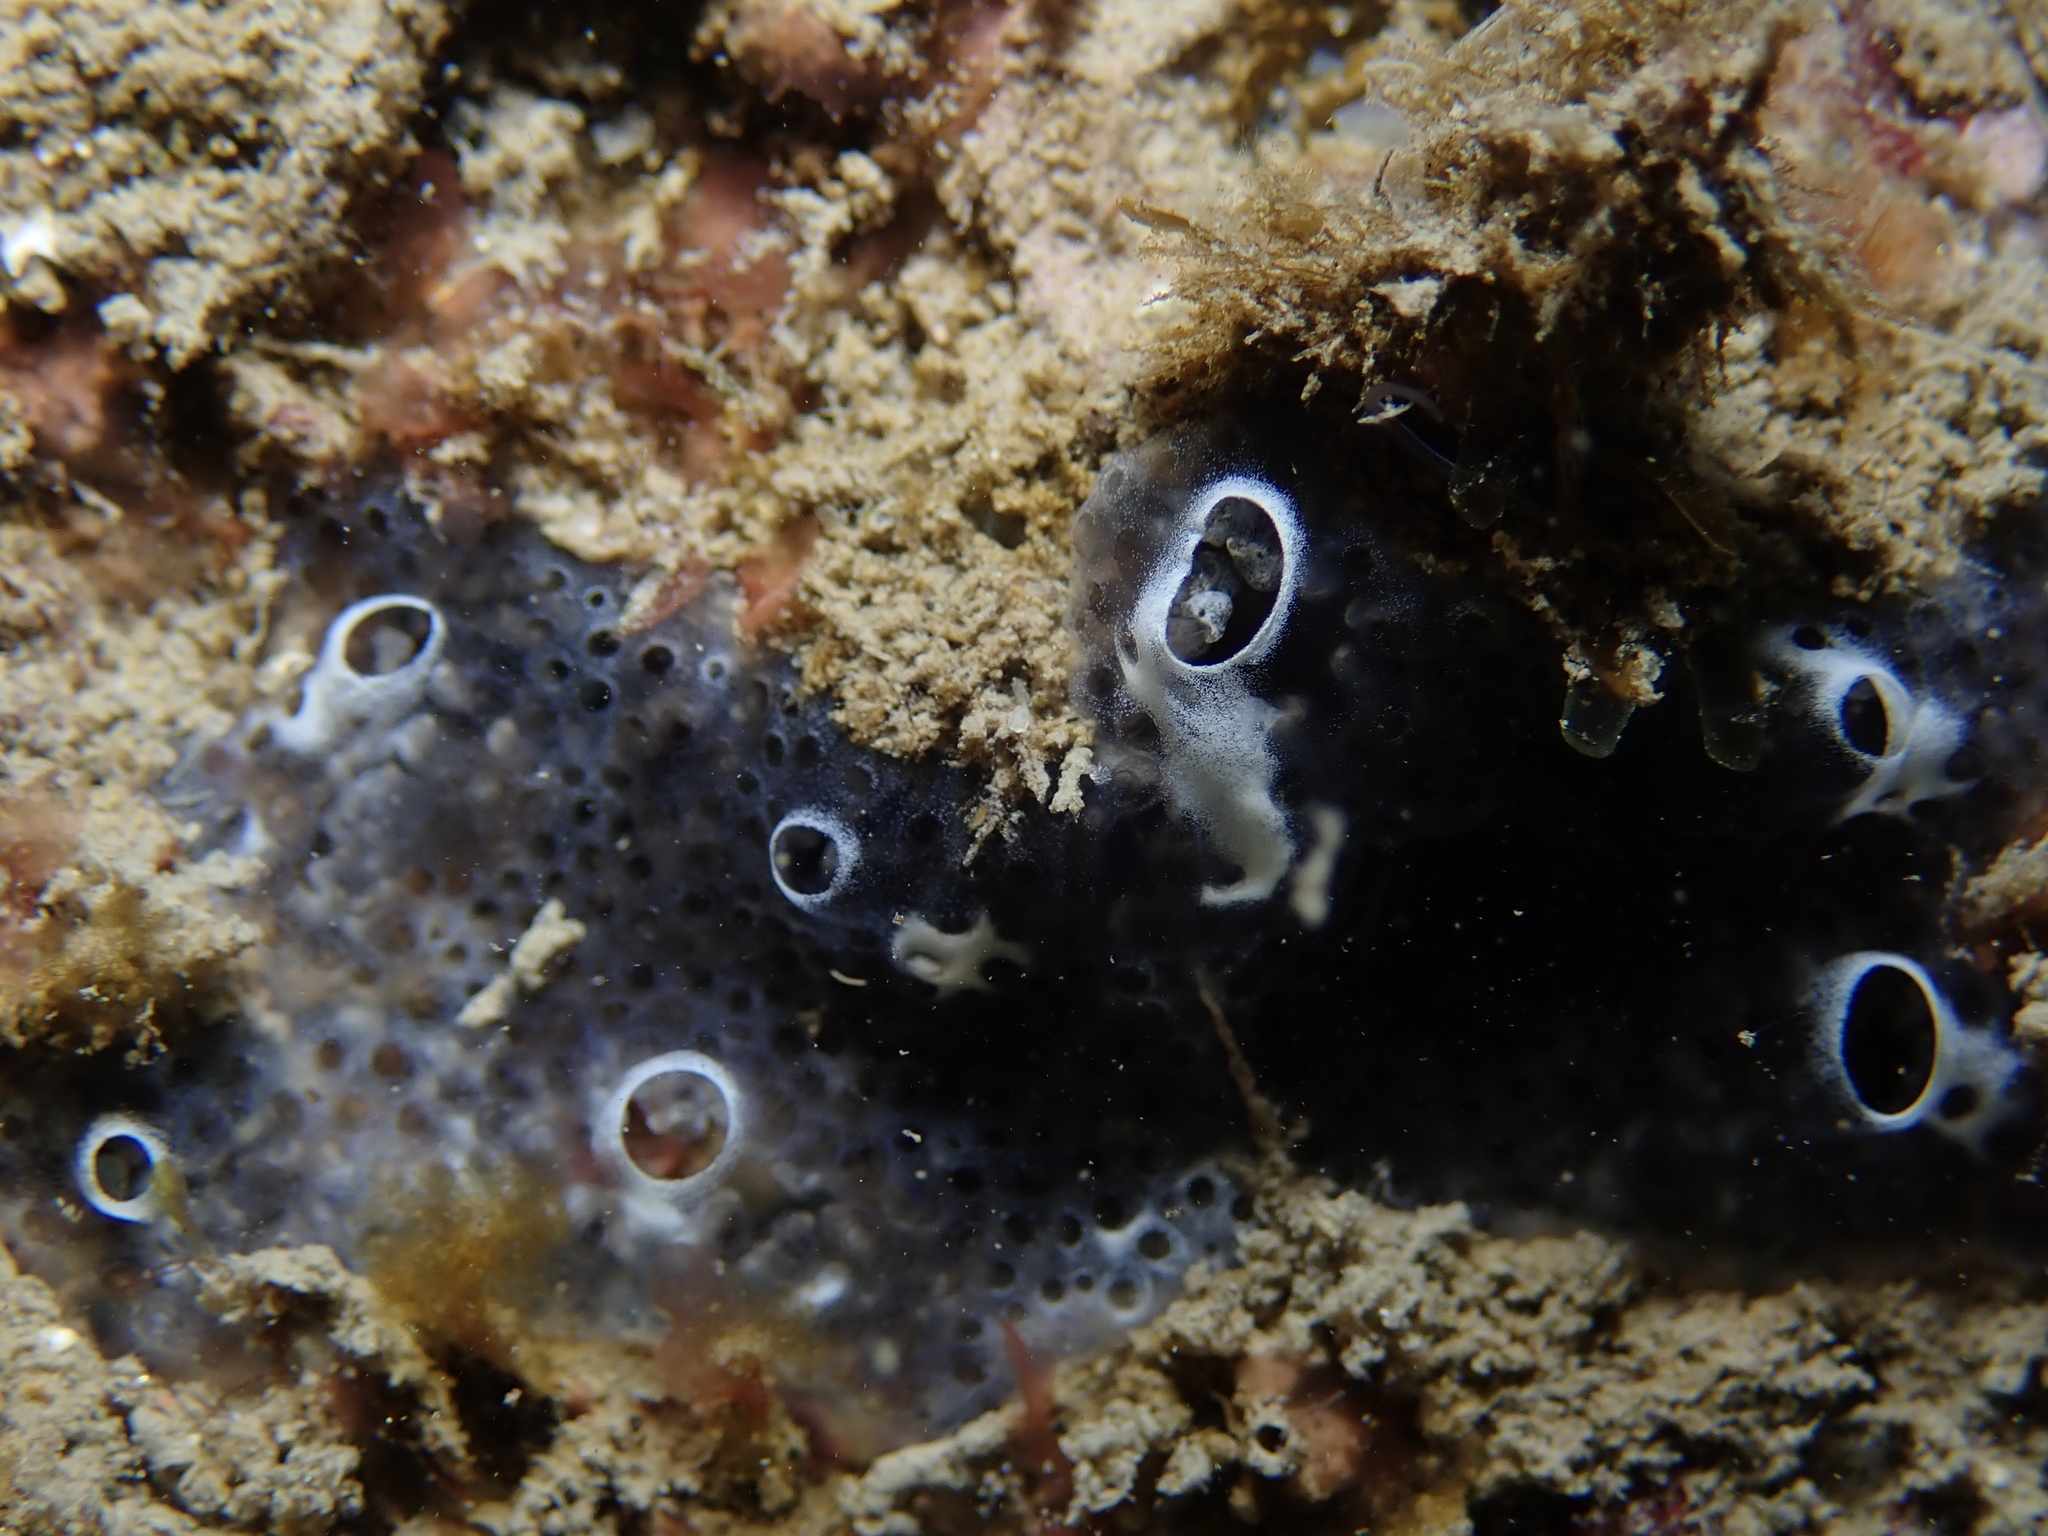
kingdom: Animalia
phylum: Chordata
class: Ascidiacea
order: Aplousobranchia
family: Didemnidae
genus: Diplosoma
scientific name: Diplosoma spongiforme
